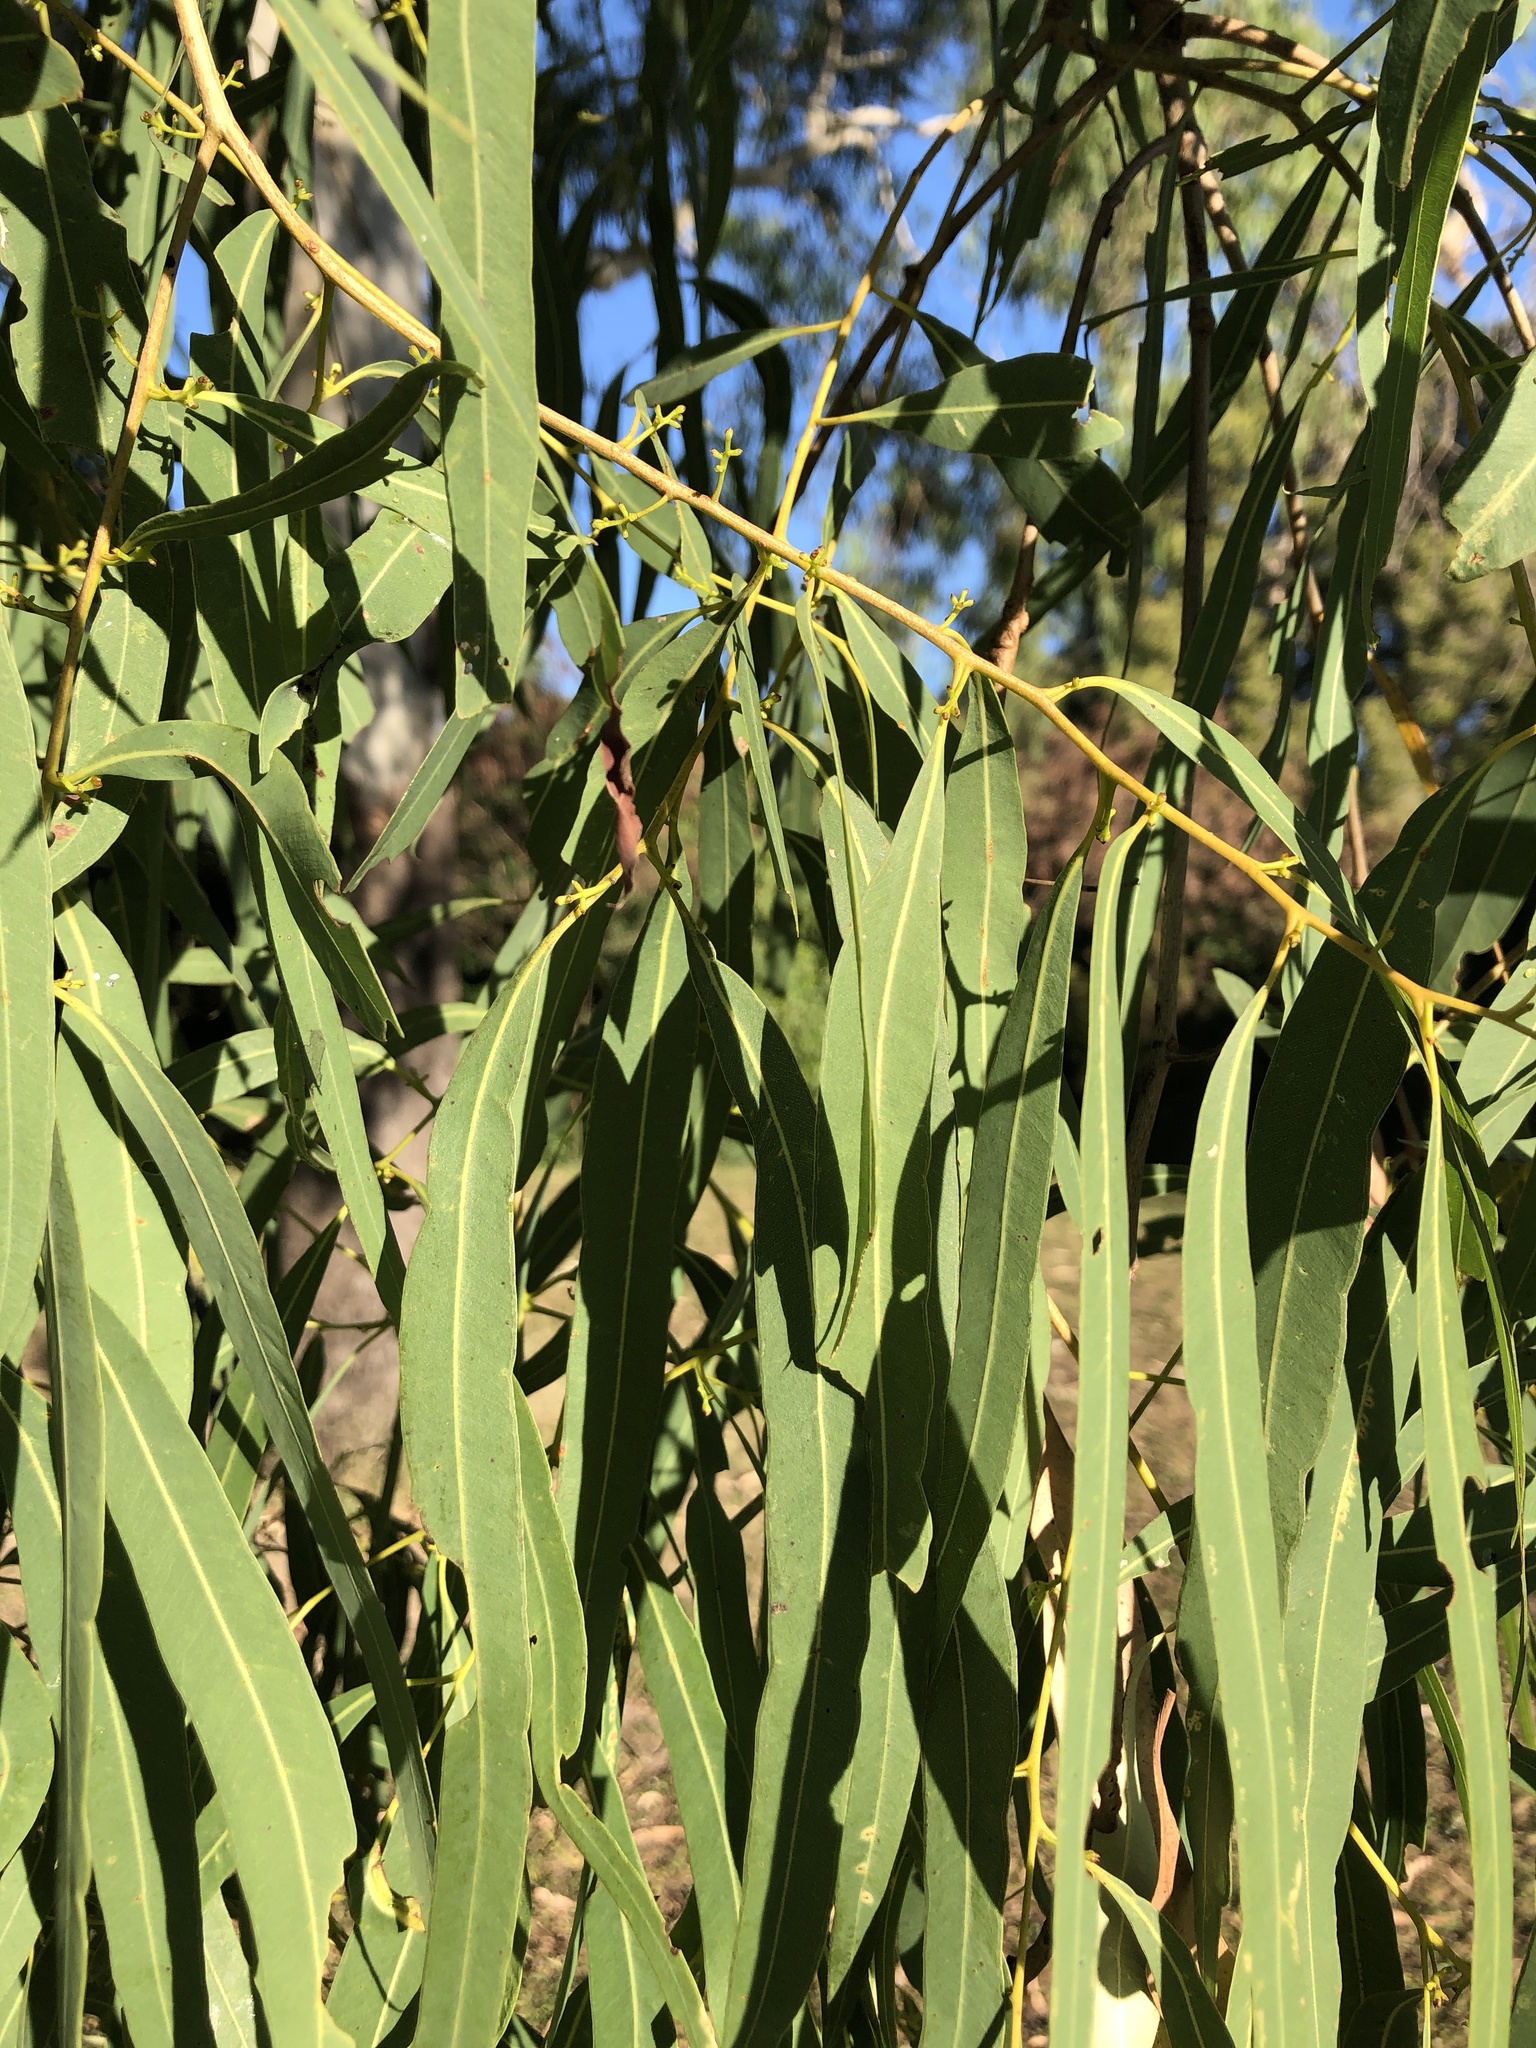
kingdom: Plantae
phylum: Tracheophyta
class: Magnoliopsida
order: Myrtales
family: Myrtaceae
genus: Corymbia
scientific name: Corymbia tessellaris
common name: Carbeen
